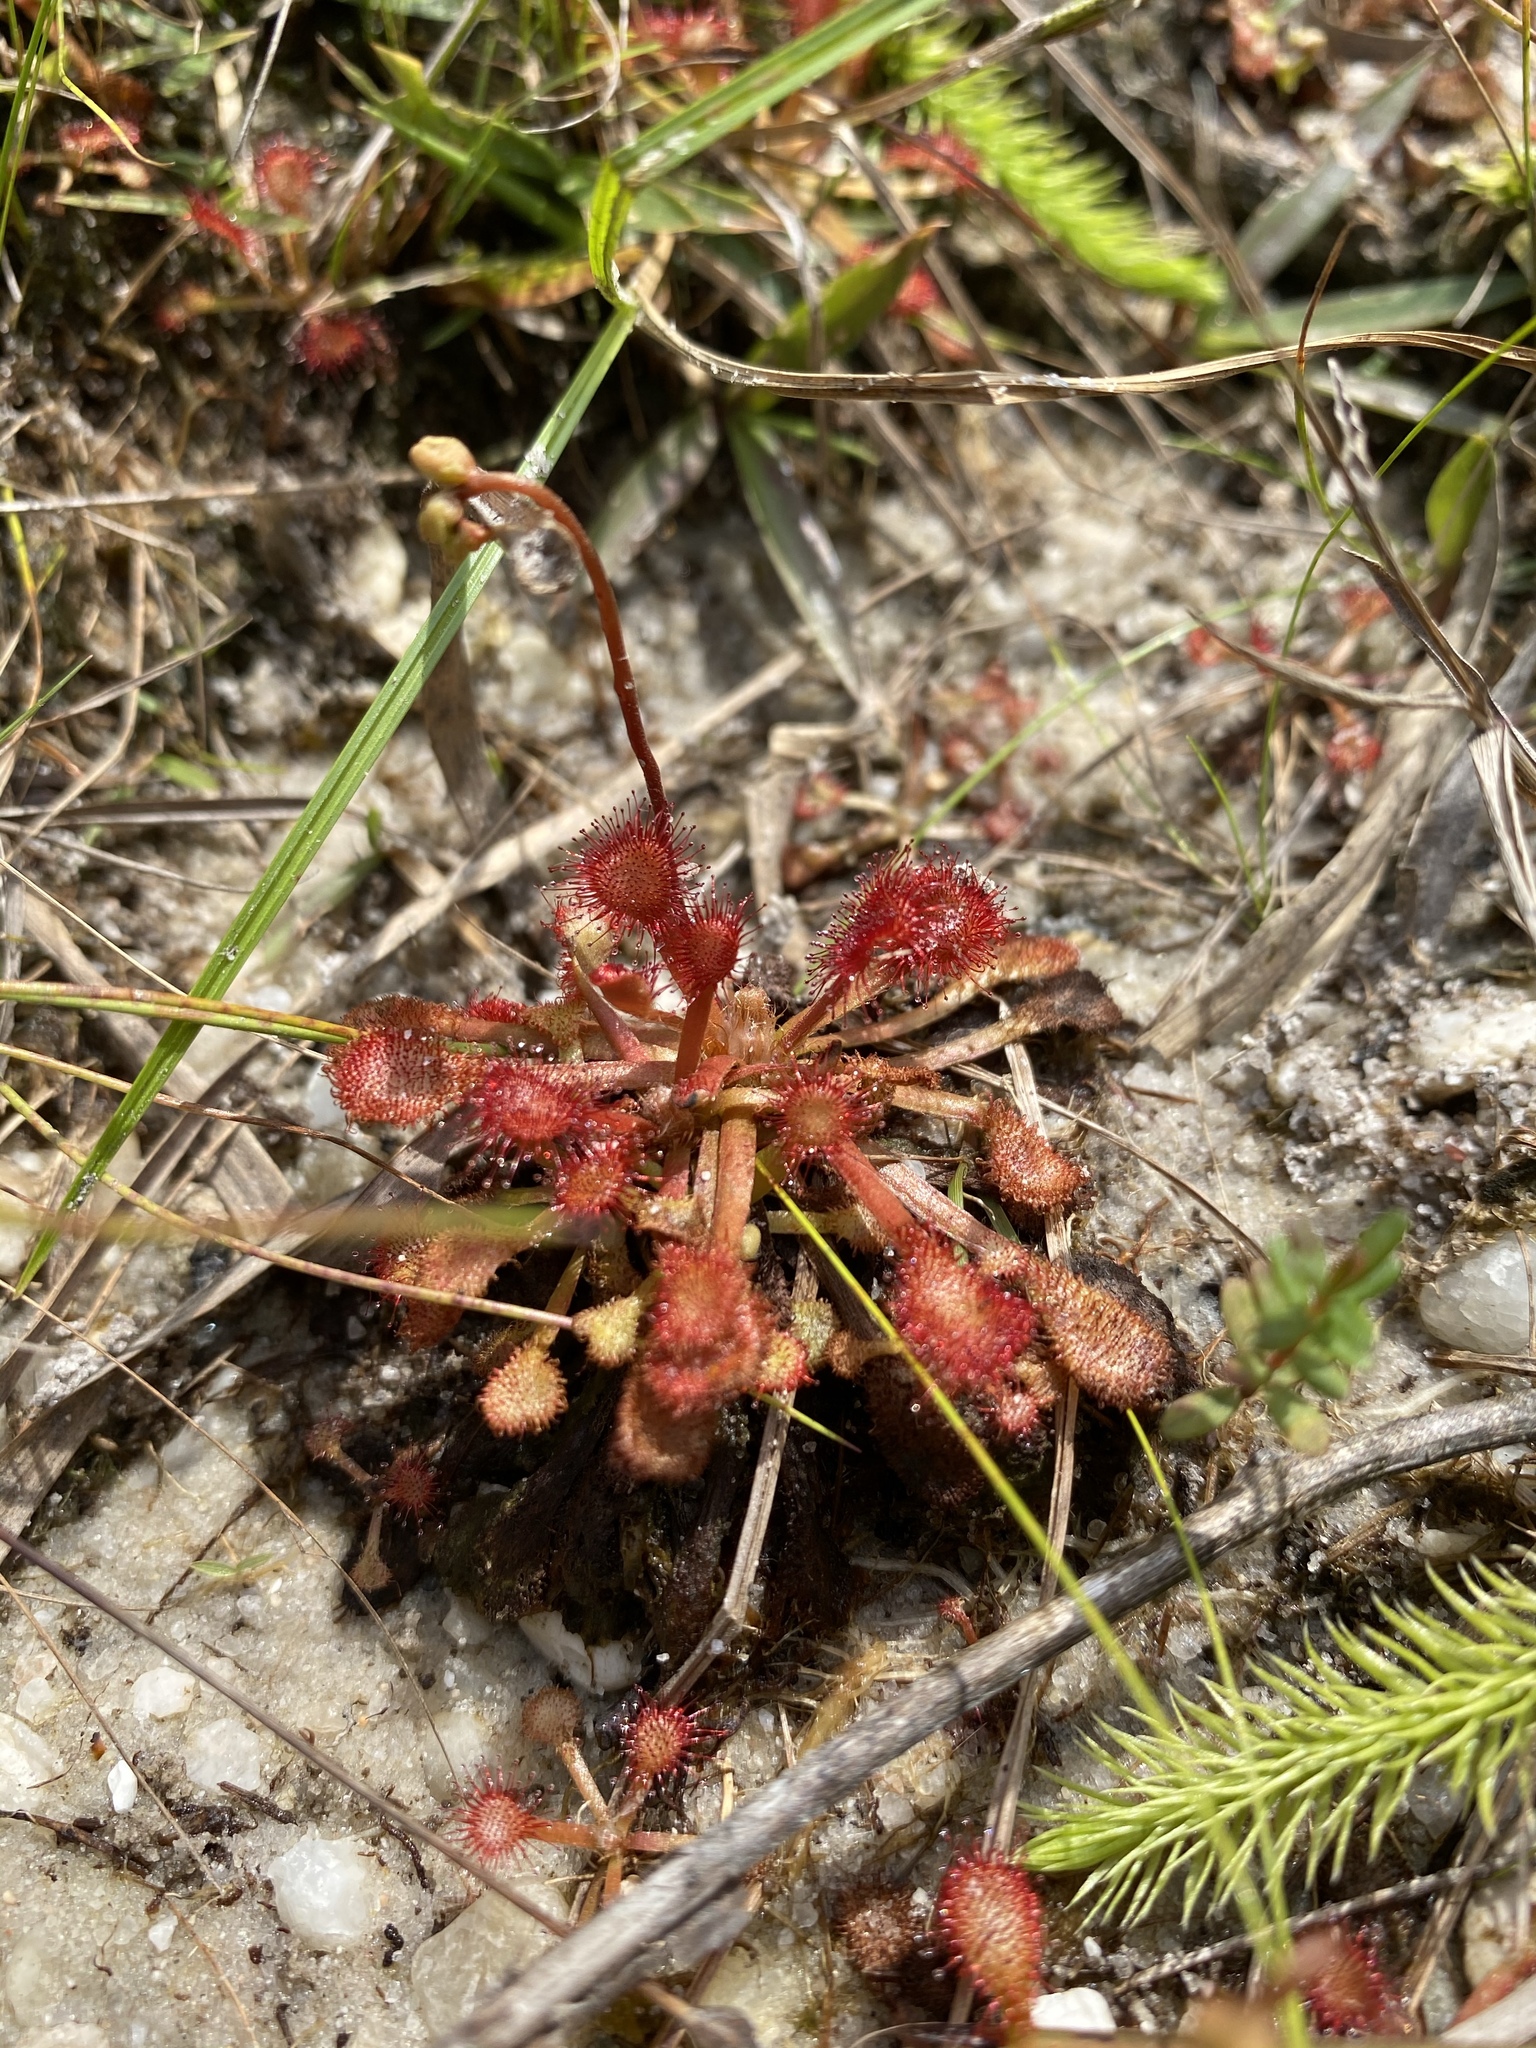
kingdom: Plantae
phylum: Tracheophyta
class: Magnoliopsida
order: Caryophyllales
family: Droseraceae
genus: Drosera
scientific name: Drosera capillaris
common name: Pink sundew
